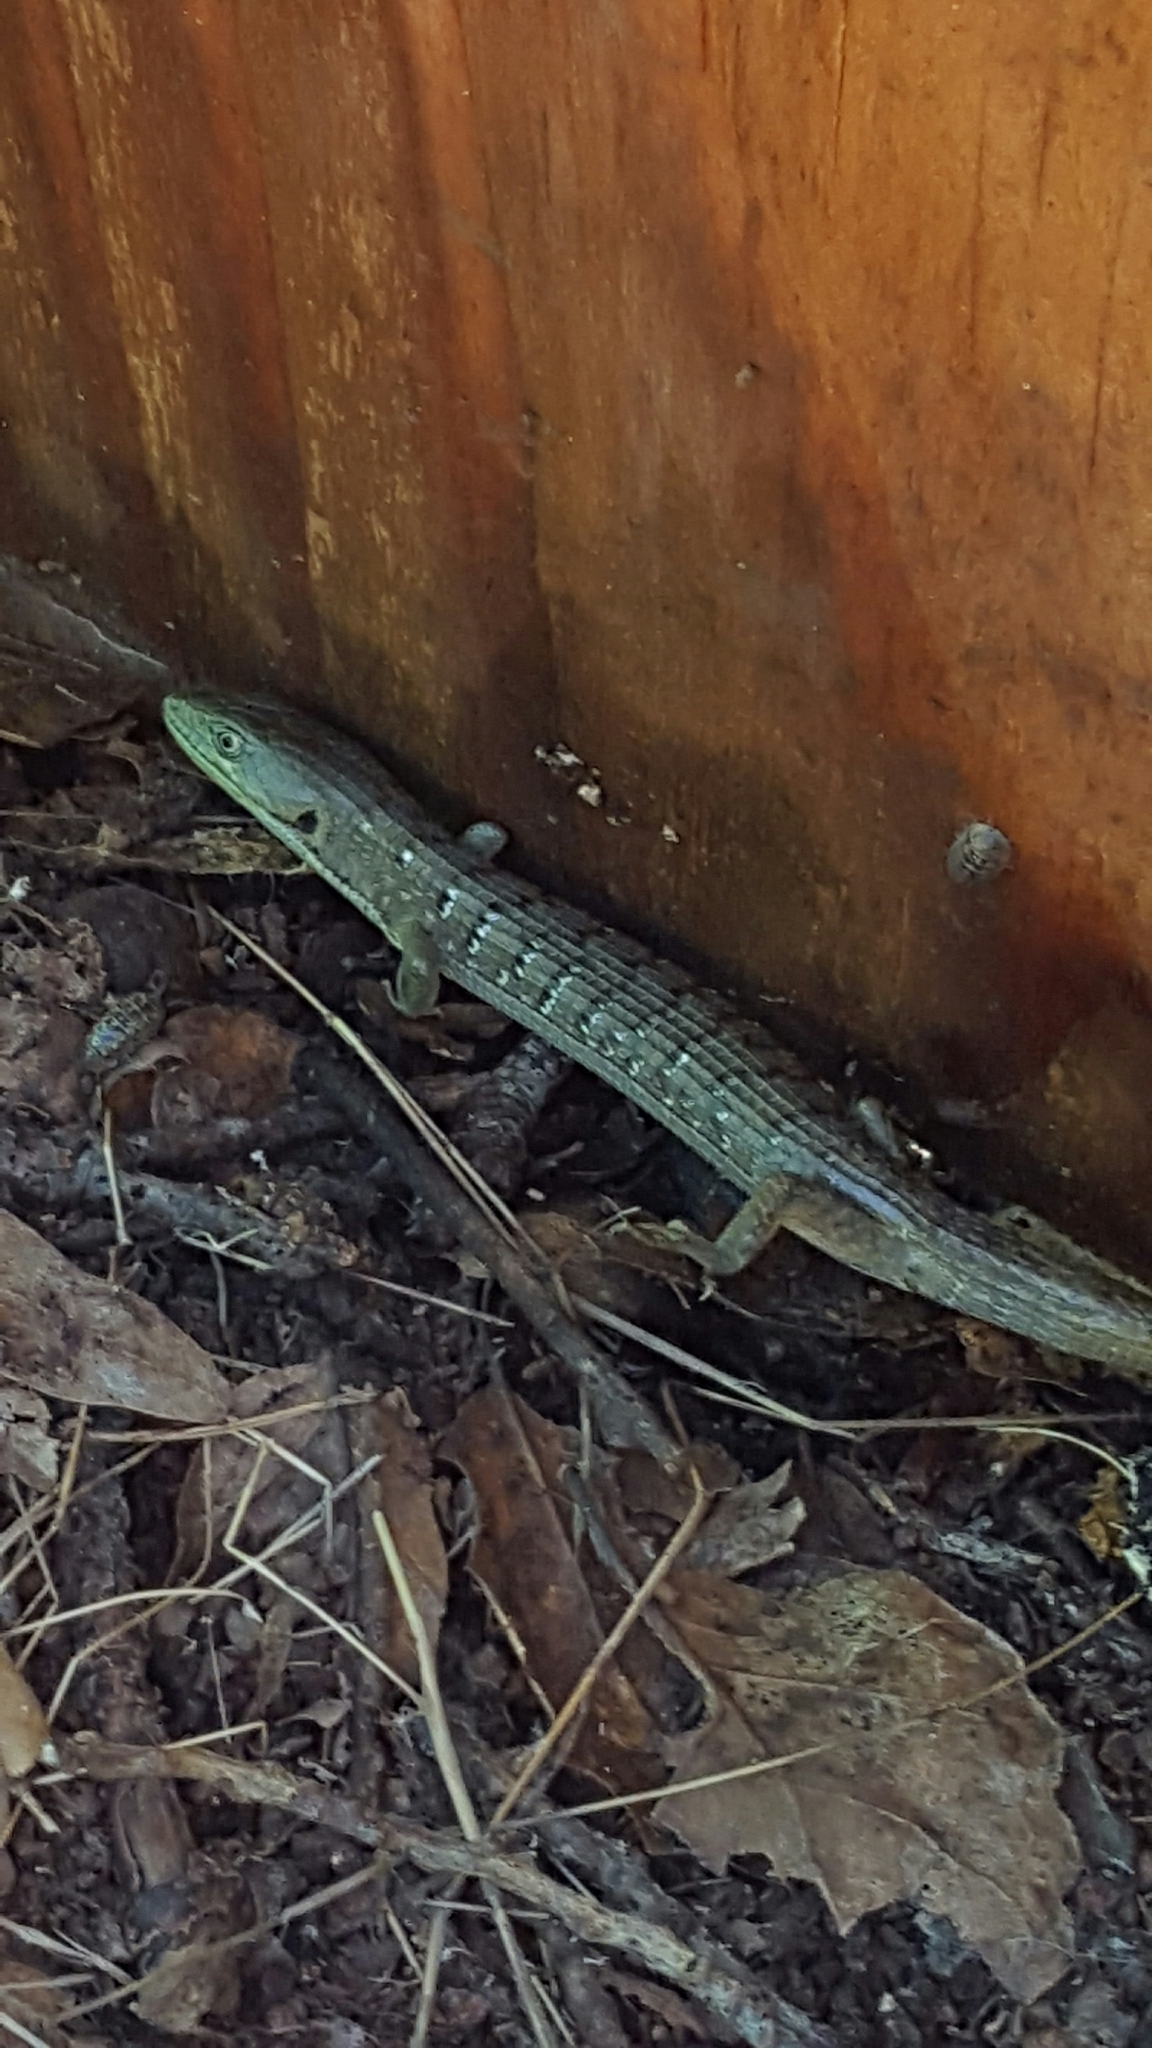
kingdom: Animalia
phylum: Chordata
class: Squamata
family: Anguidae
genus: Elgaria
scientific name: Elgaria multicarinata
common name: Southern alligator lizard
